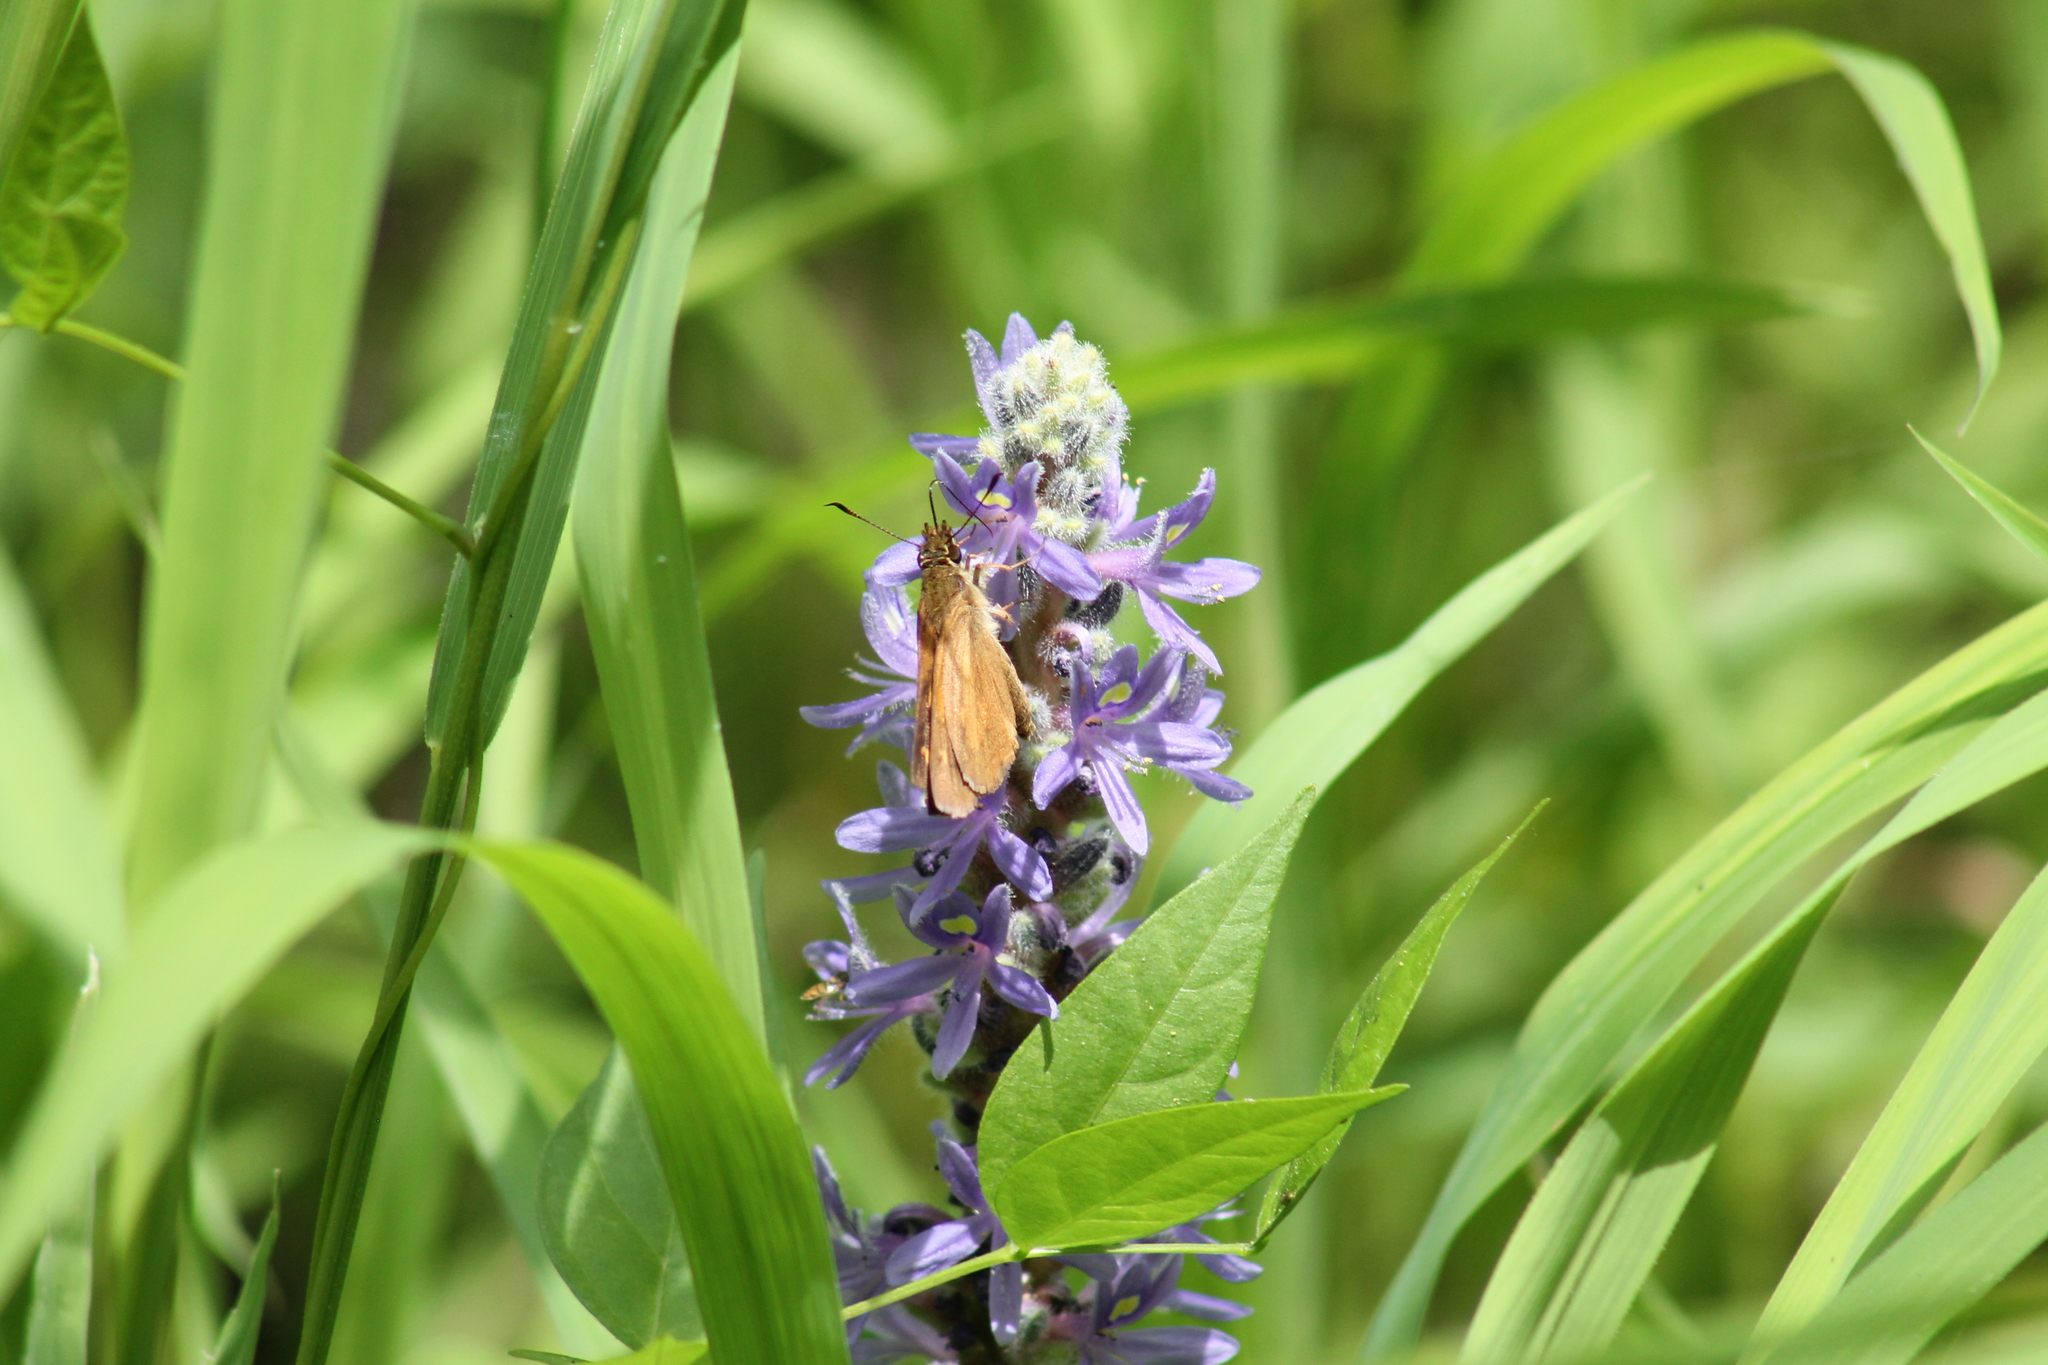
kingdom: Animalia
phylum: Arthropoda
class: Insecta
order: Lepidoptera
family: Hesperiidae
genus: Poanes
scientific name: Poanes viator
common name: Broad-winged skipper
